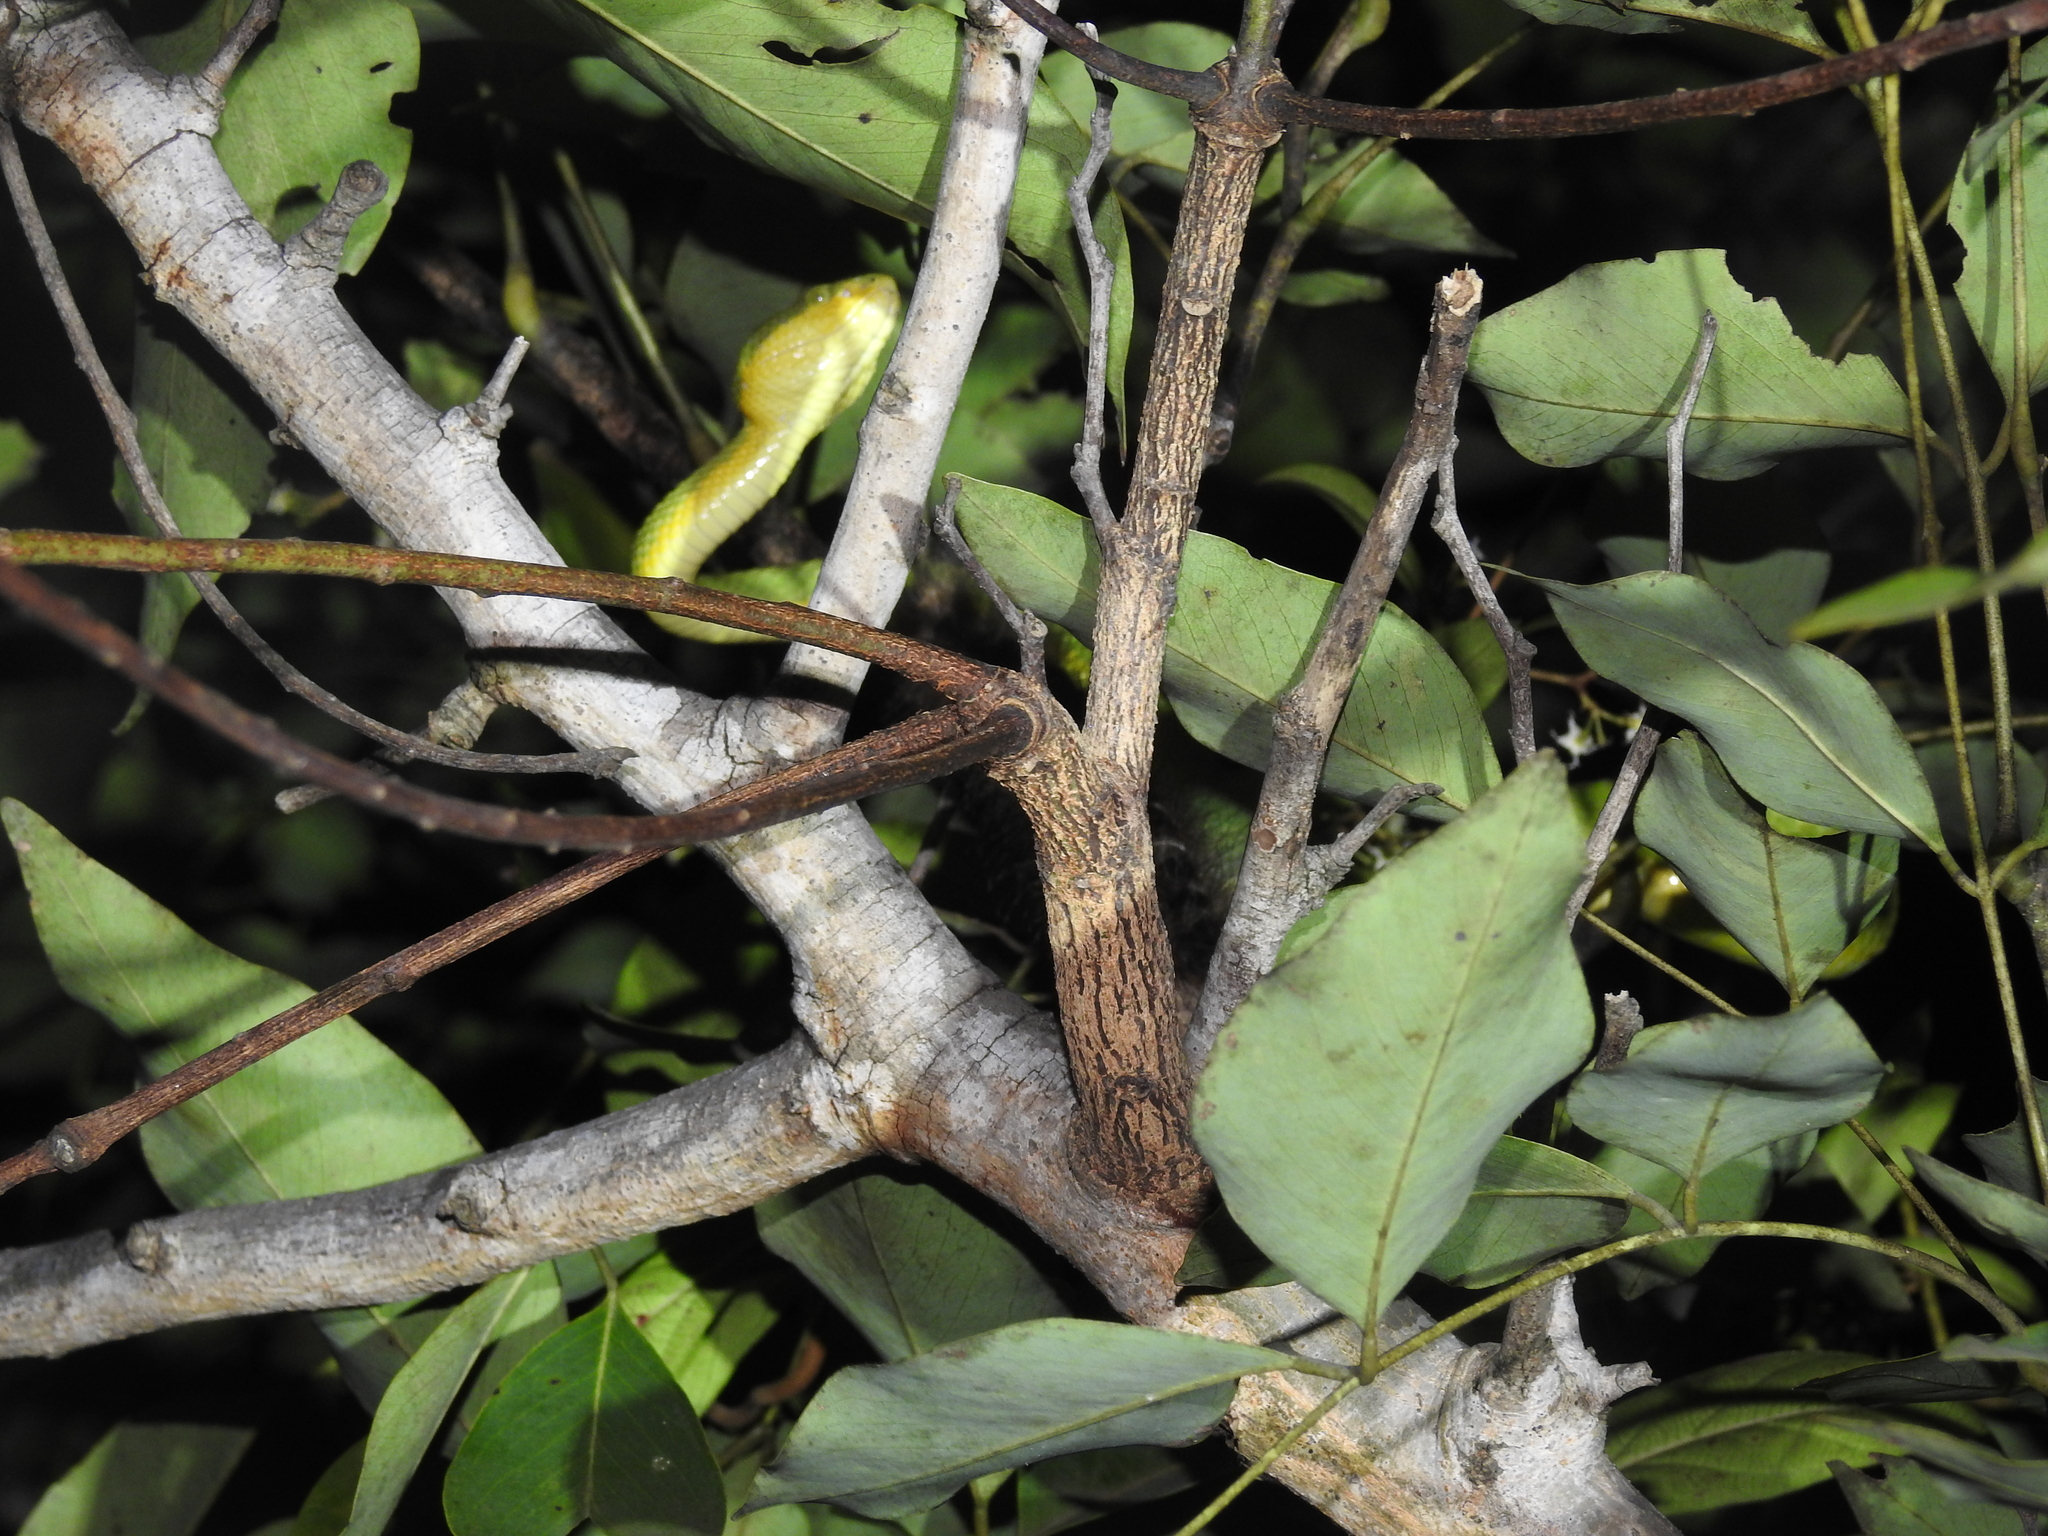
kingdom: Animalia
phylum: Chordata
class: Squamata
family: Viperidae
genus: Craspedocephalus
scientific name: Craspedocephalus gramineus
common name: Common bamboo viper
